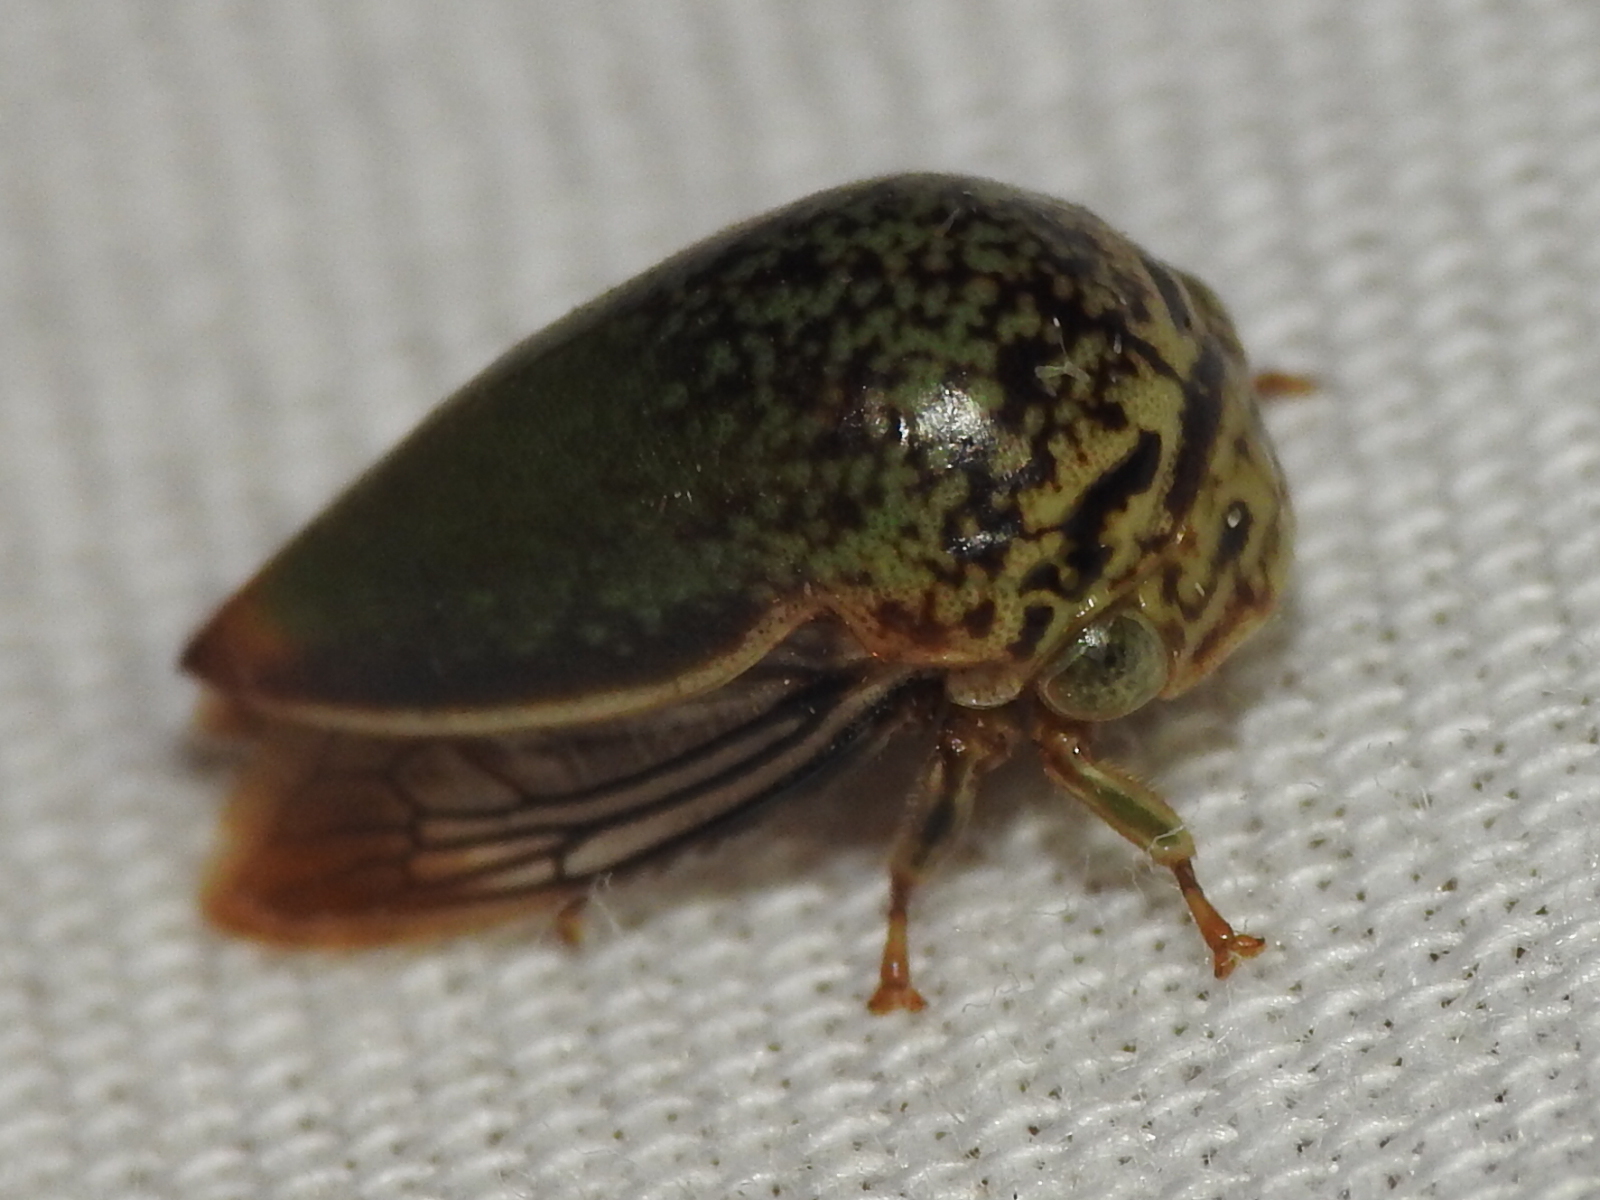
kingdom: Animalia
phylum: Arthropoda
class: Insecta
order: Hemiptera
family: Membracidae
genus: Stictopelta
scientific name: Stictopelta marmorata
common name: Treehopper
